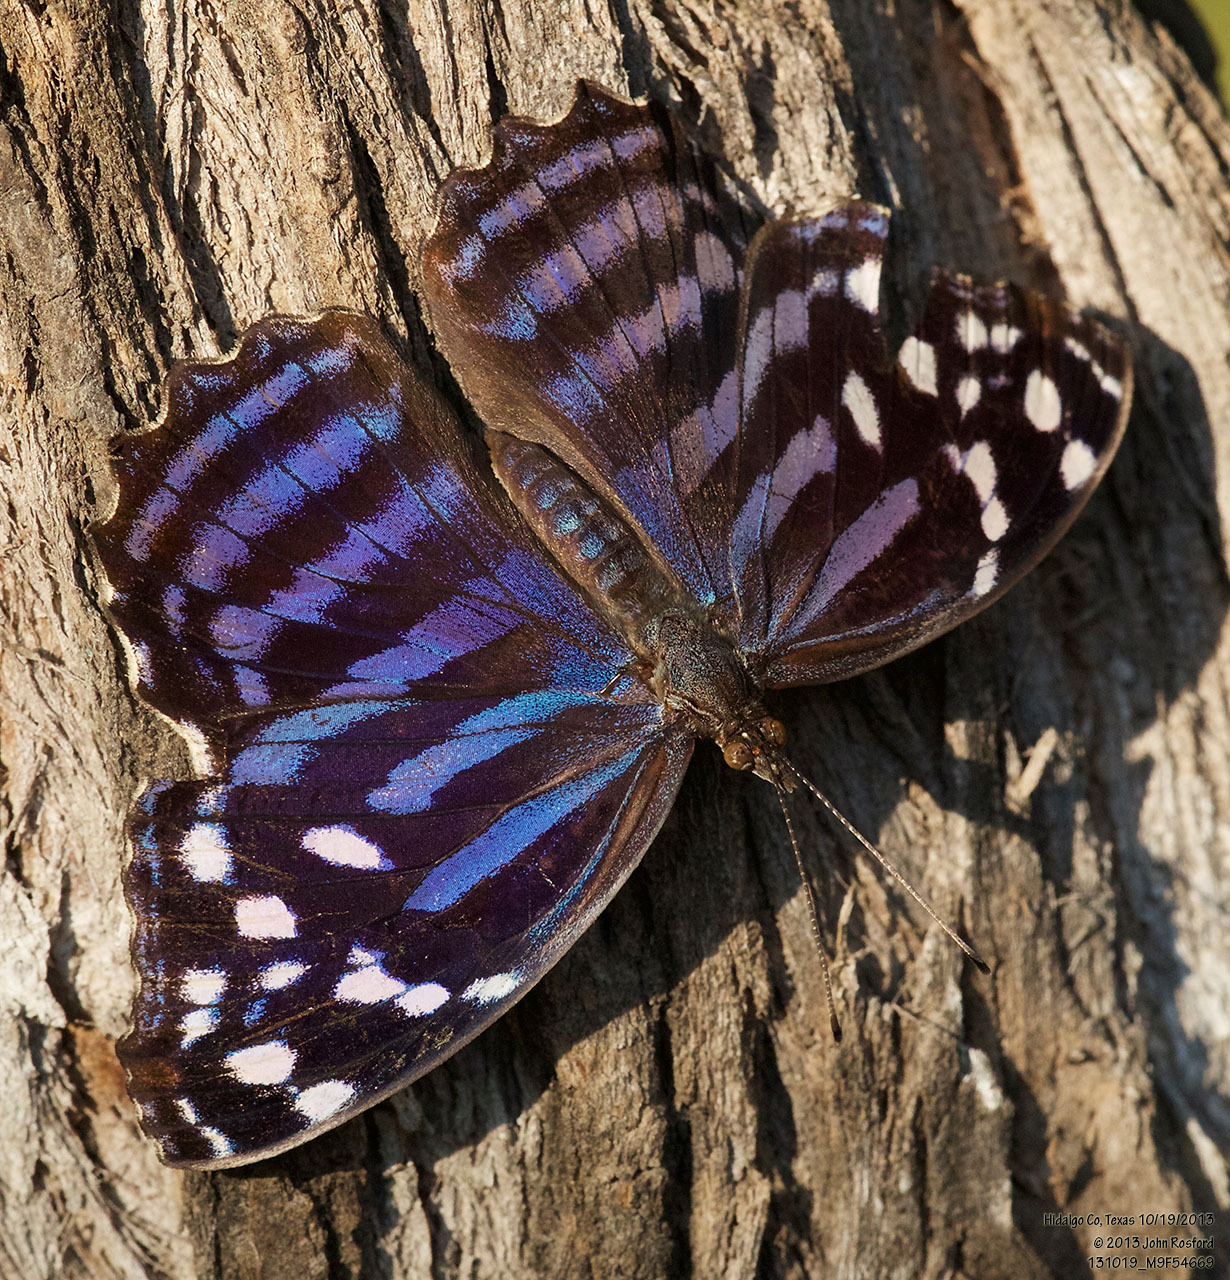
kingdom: Animalia
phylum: Arthropoda
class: Insecta
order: Lepidoptera
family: Nymphalidae
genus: Myscelia
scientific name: Myscelia ethusa
